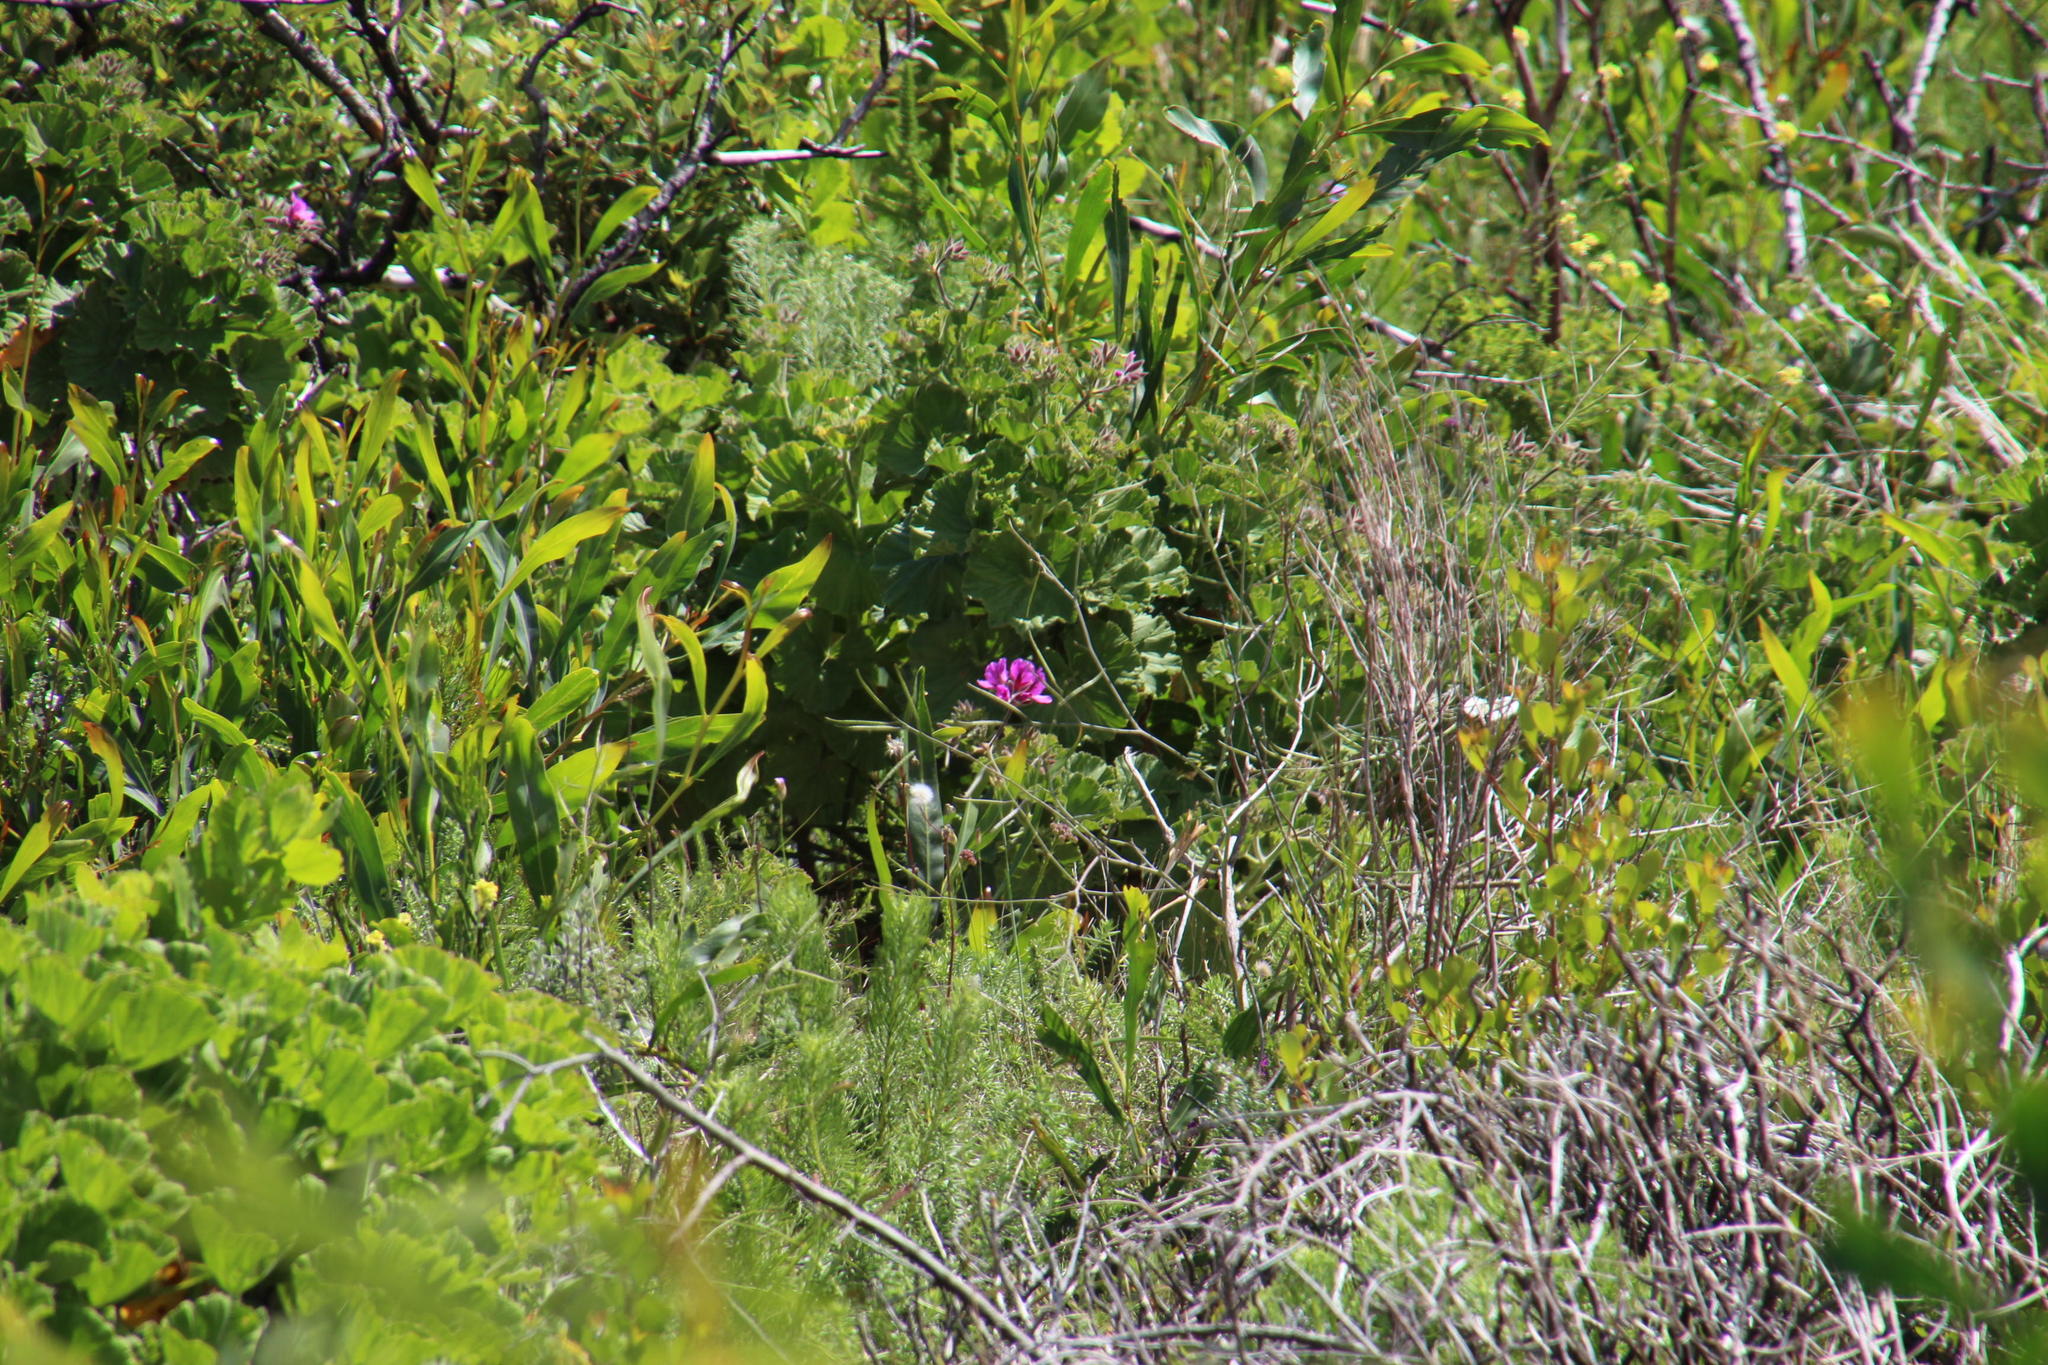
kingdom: Plantae
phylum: Tracheophyta
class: Magnoliopsida
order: Geraniales
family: Geraniaceae
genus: Pelargonium
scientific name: Pelargonium cucullatum
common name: Tree pelargonium
